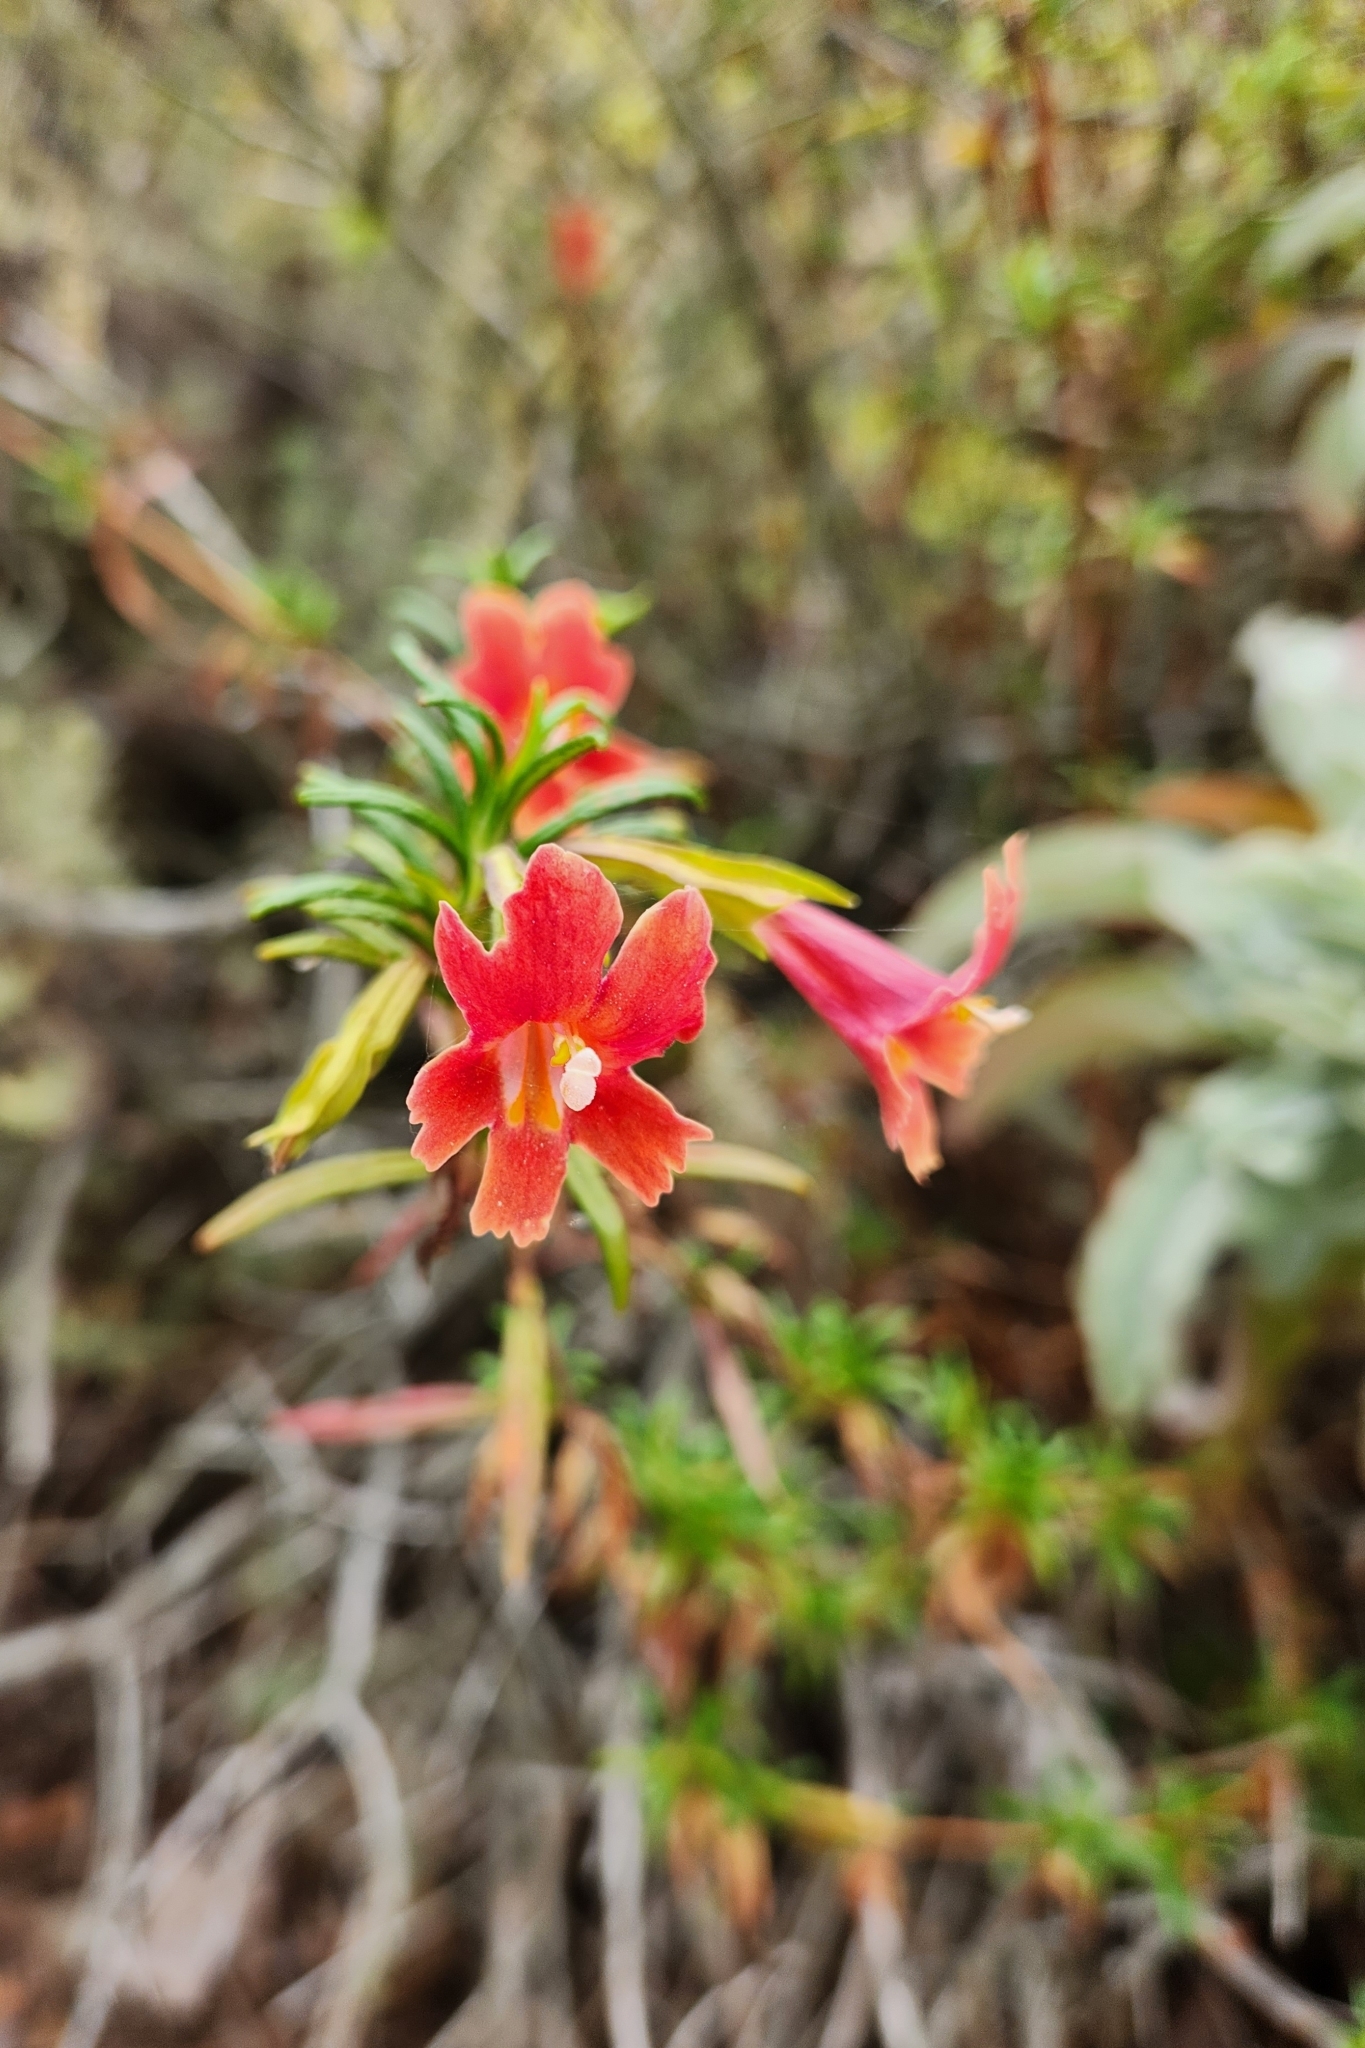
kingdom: Plantae
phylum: Tracheophyta
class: Magnoliopsida
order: Lamiales
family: Phrymaceae
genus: Diplacus
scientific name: Diplacus puniceus
